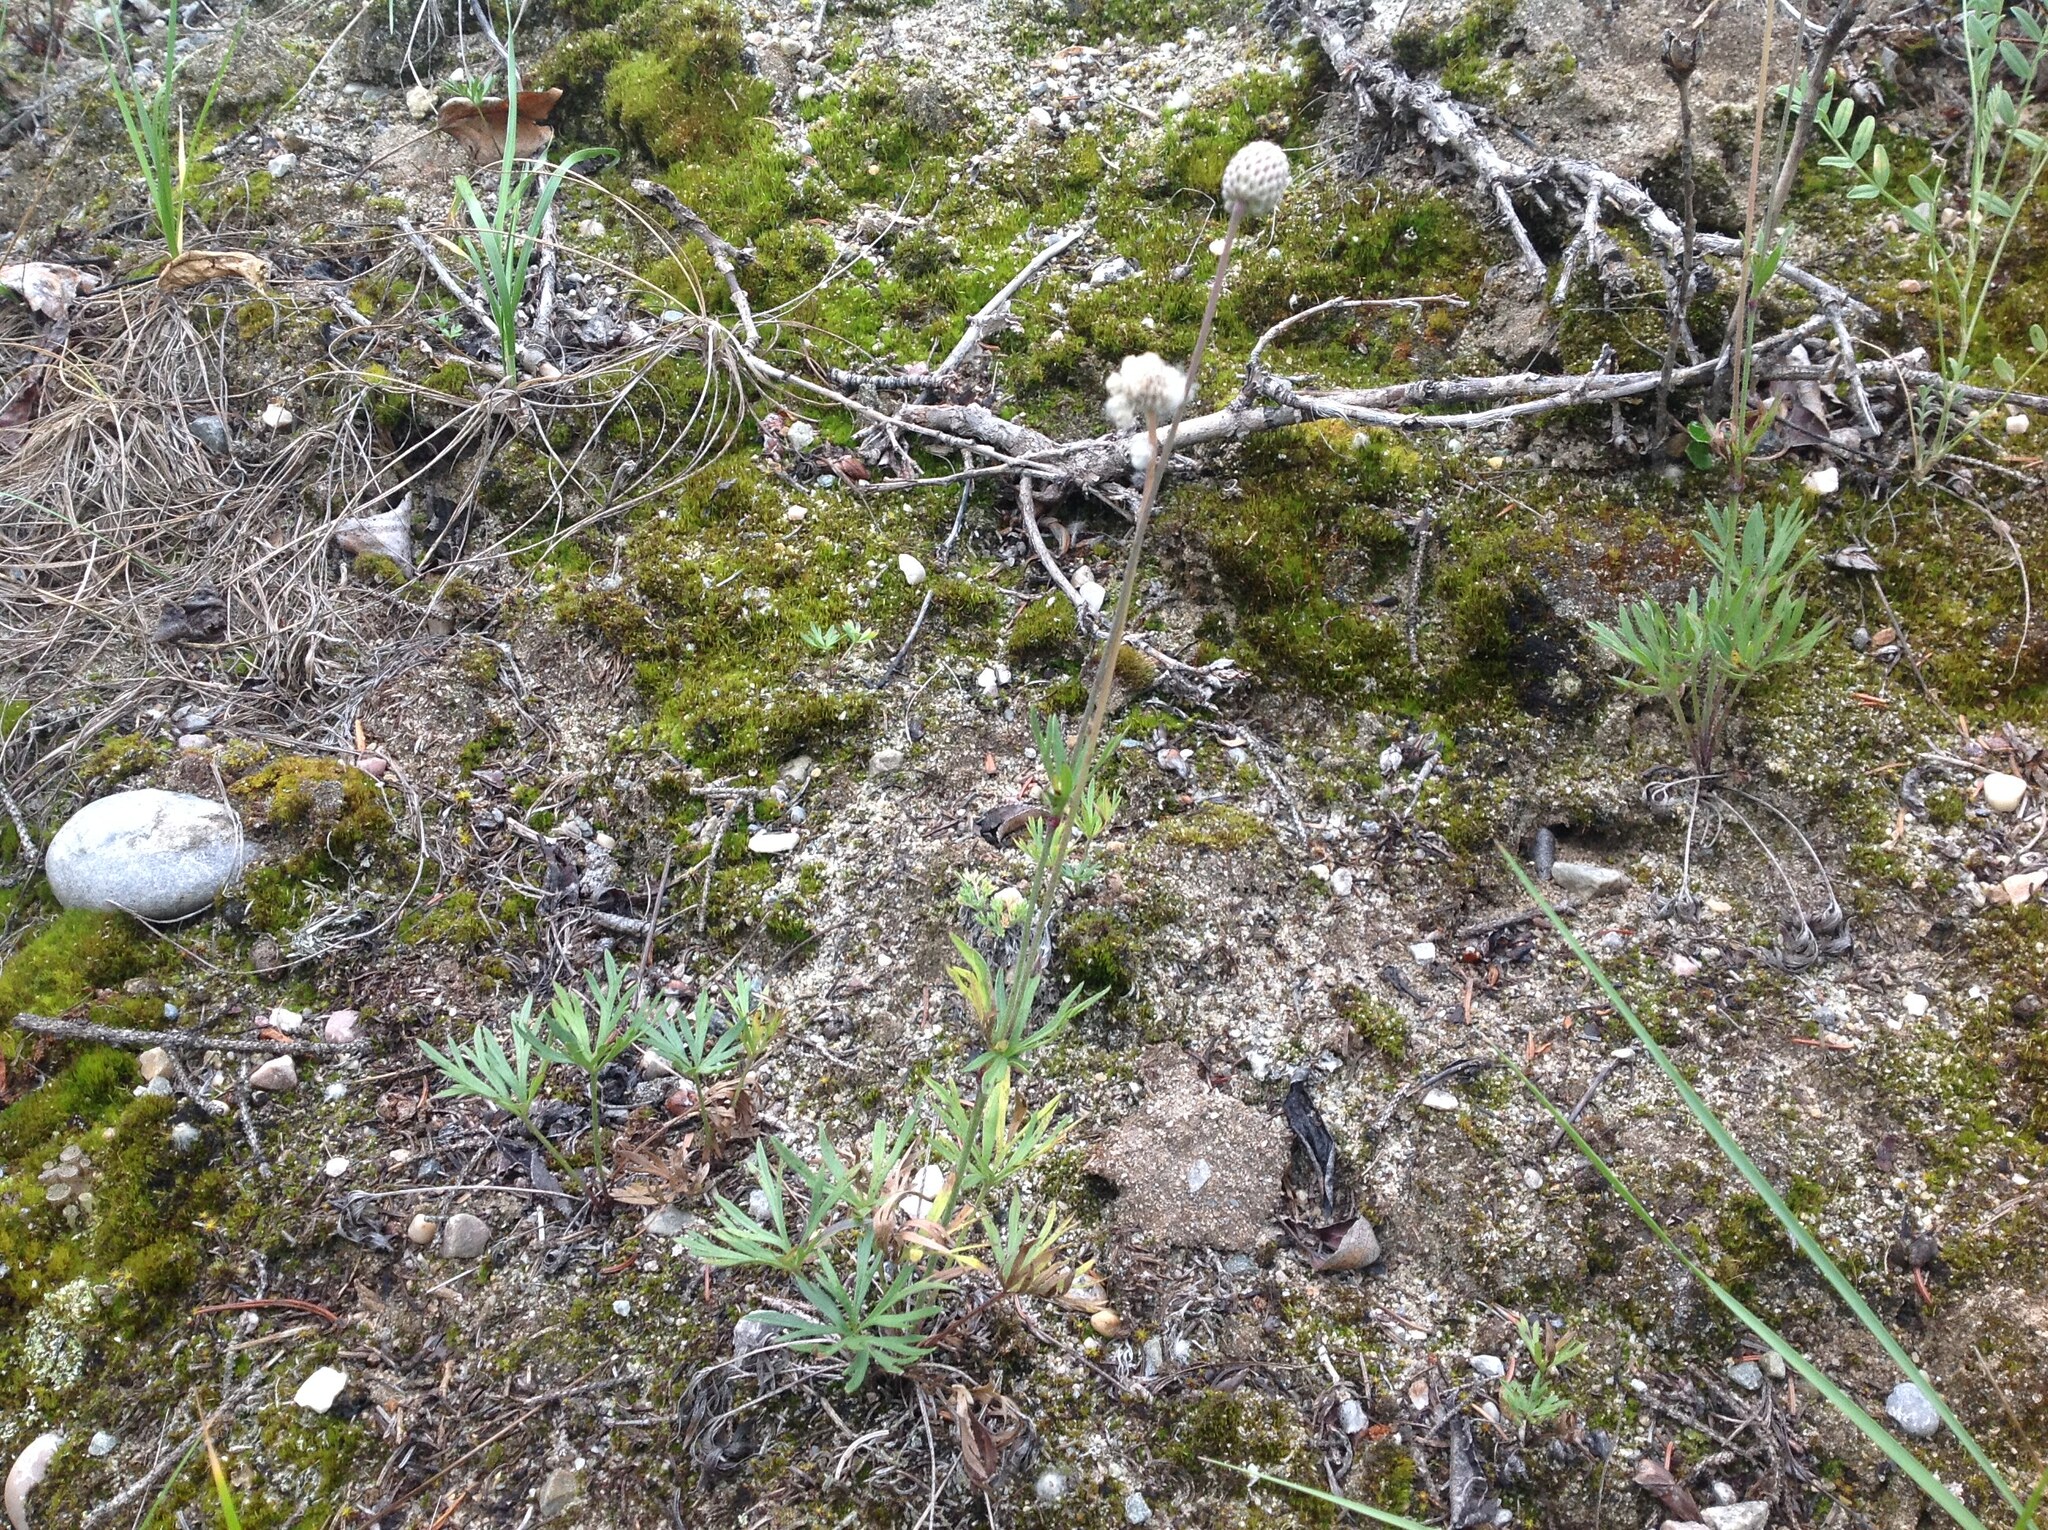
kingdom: Plantae
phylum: Tracheophyta
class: Magnoliopsida
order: Ranunculales
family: Ranunculaceae
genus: Anemone
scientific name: Anemone multifida
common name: Bird's-foot anemone
